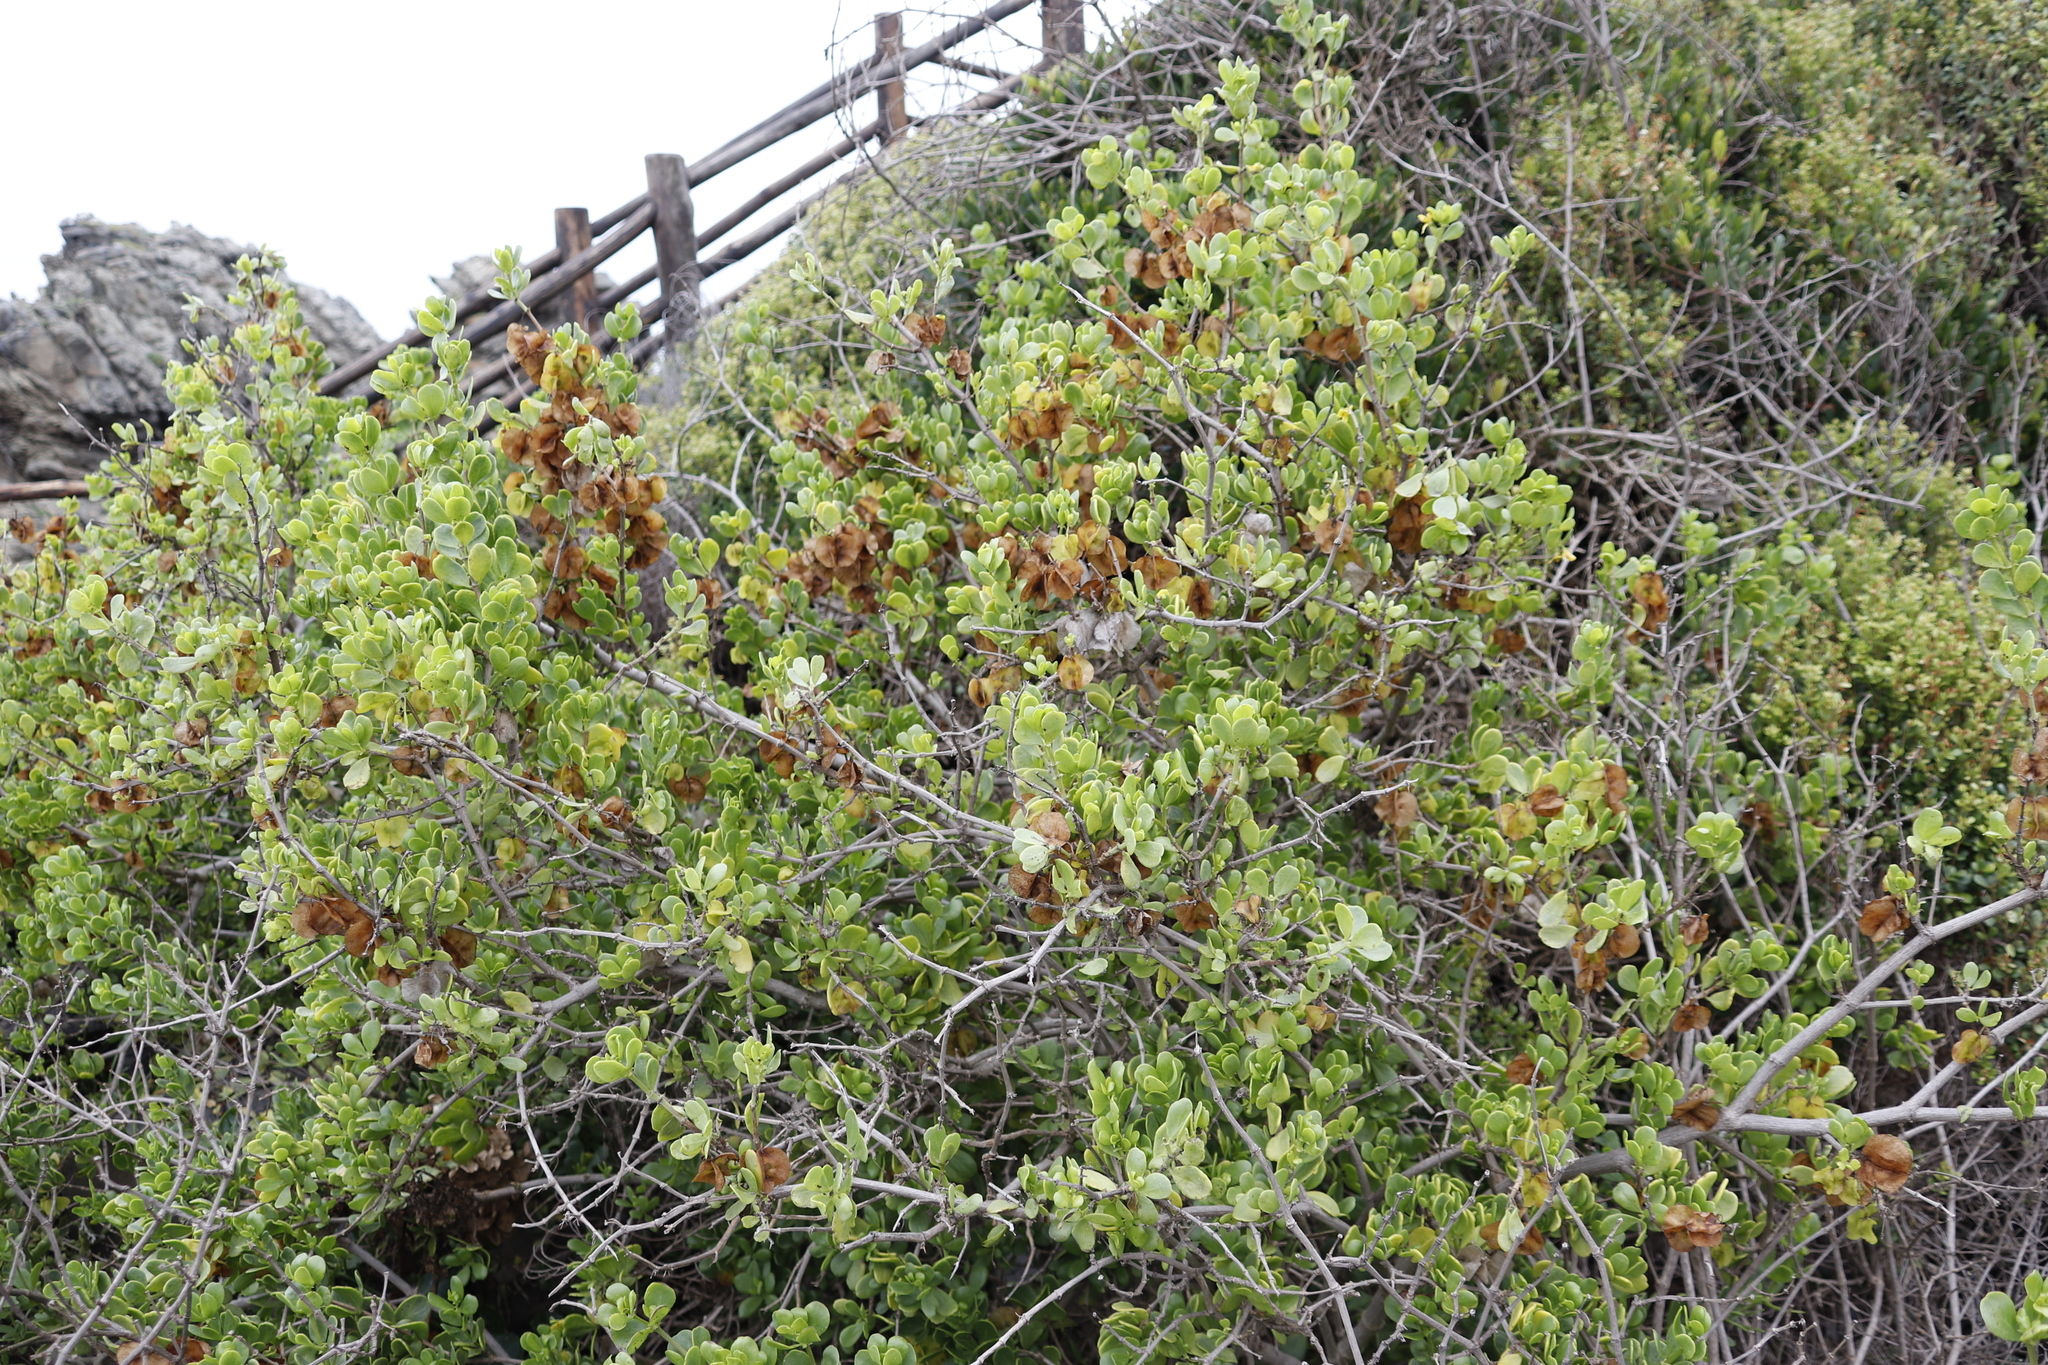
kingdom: Plantae
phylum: Tracheophyta
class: Magnoliopsida
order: Zygophyllales
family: Zygophyllaceae
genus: Roepera
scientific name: Roepera morgsana
